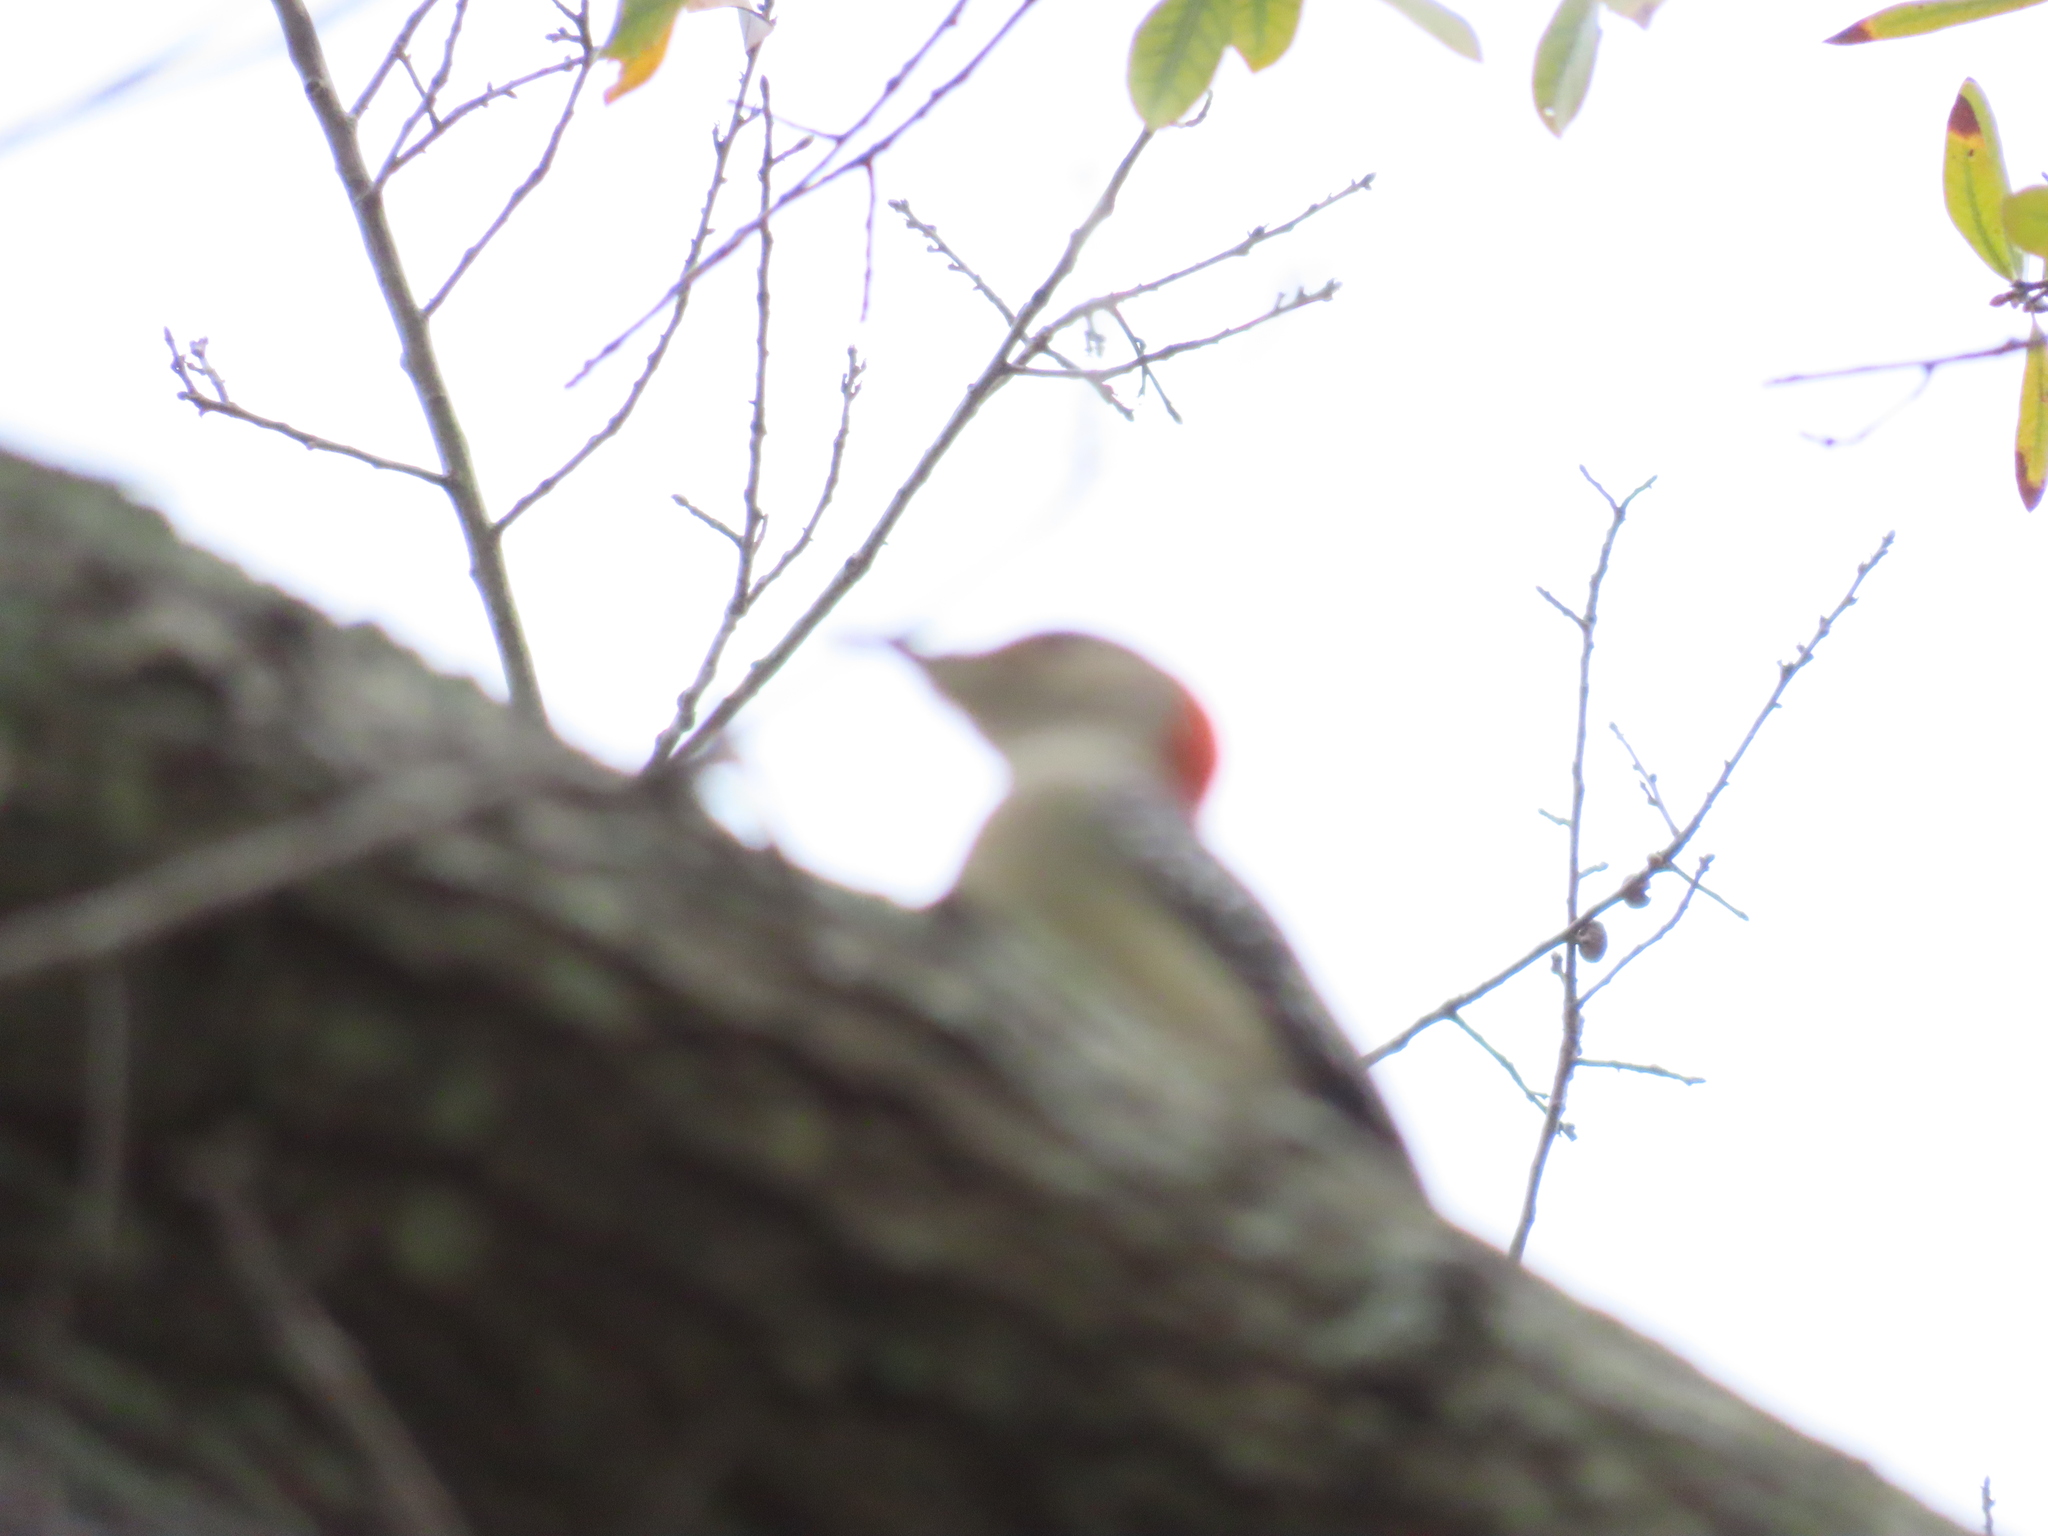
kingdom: Animalia
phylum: Chordata
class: Aves
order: Piciformes
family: Picidae
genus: Melanerpes
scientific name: Melanerpes carolinus
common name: Red-bellied woodpecker
